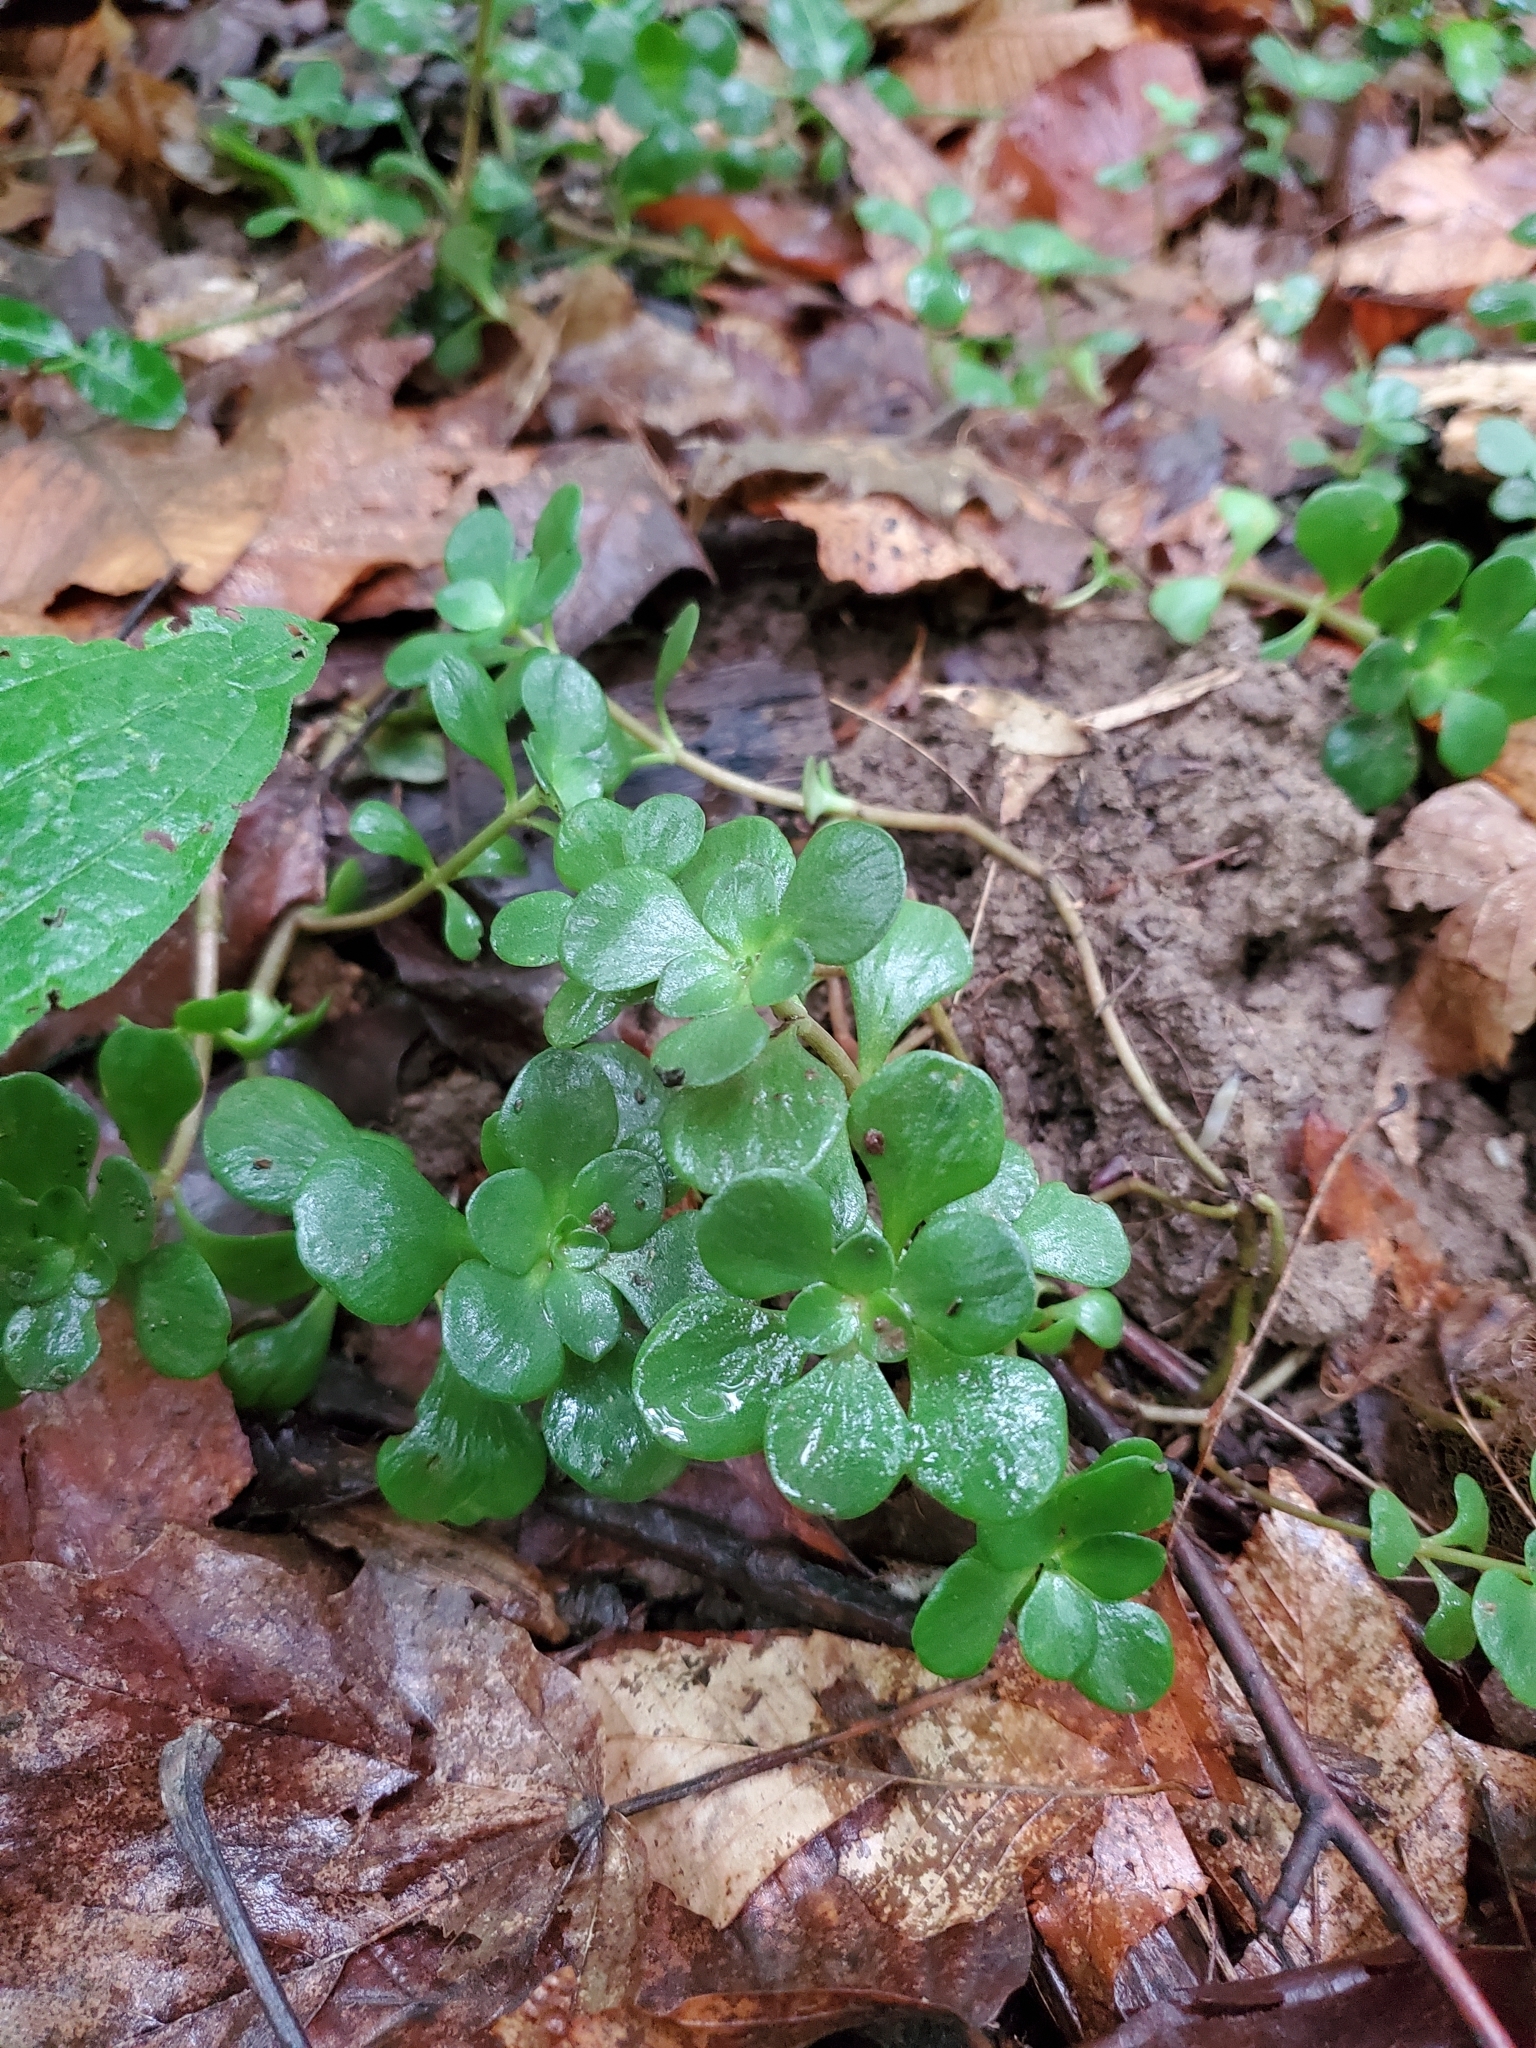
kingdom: Plantae
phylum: Tracheophyta
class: Magnoliopsida
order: Saxifragales
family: Crassulaceae
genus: Sedum
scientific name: Sedum ternatum
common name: Wild stonecrop
